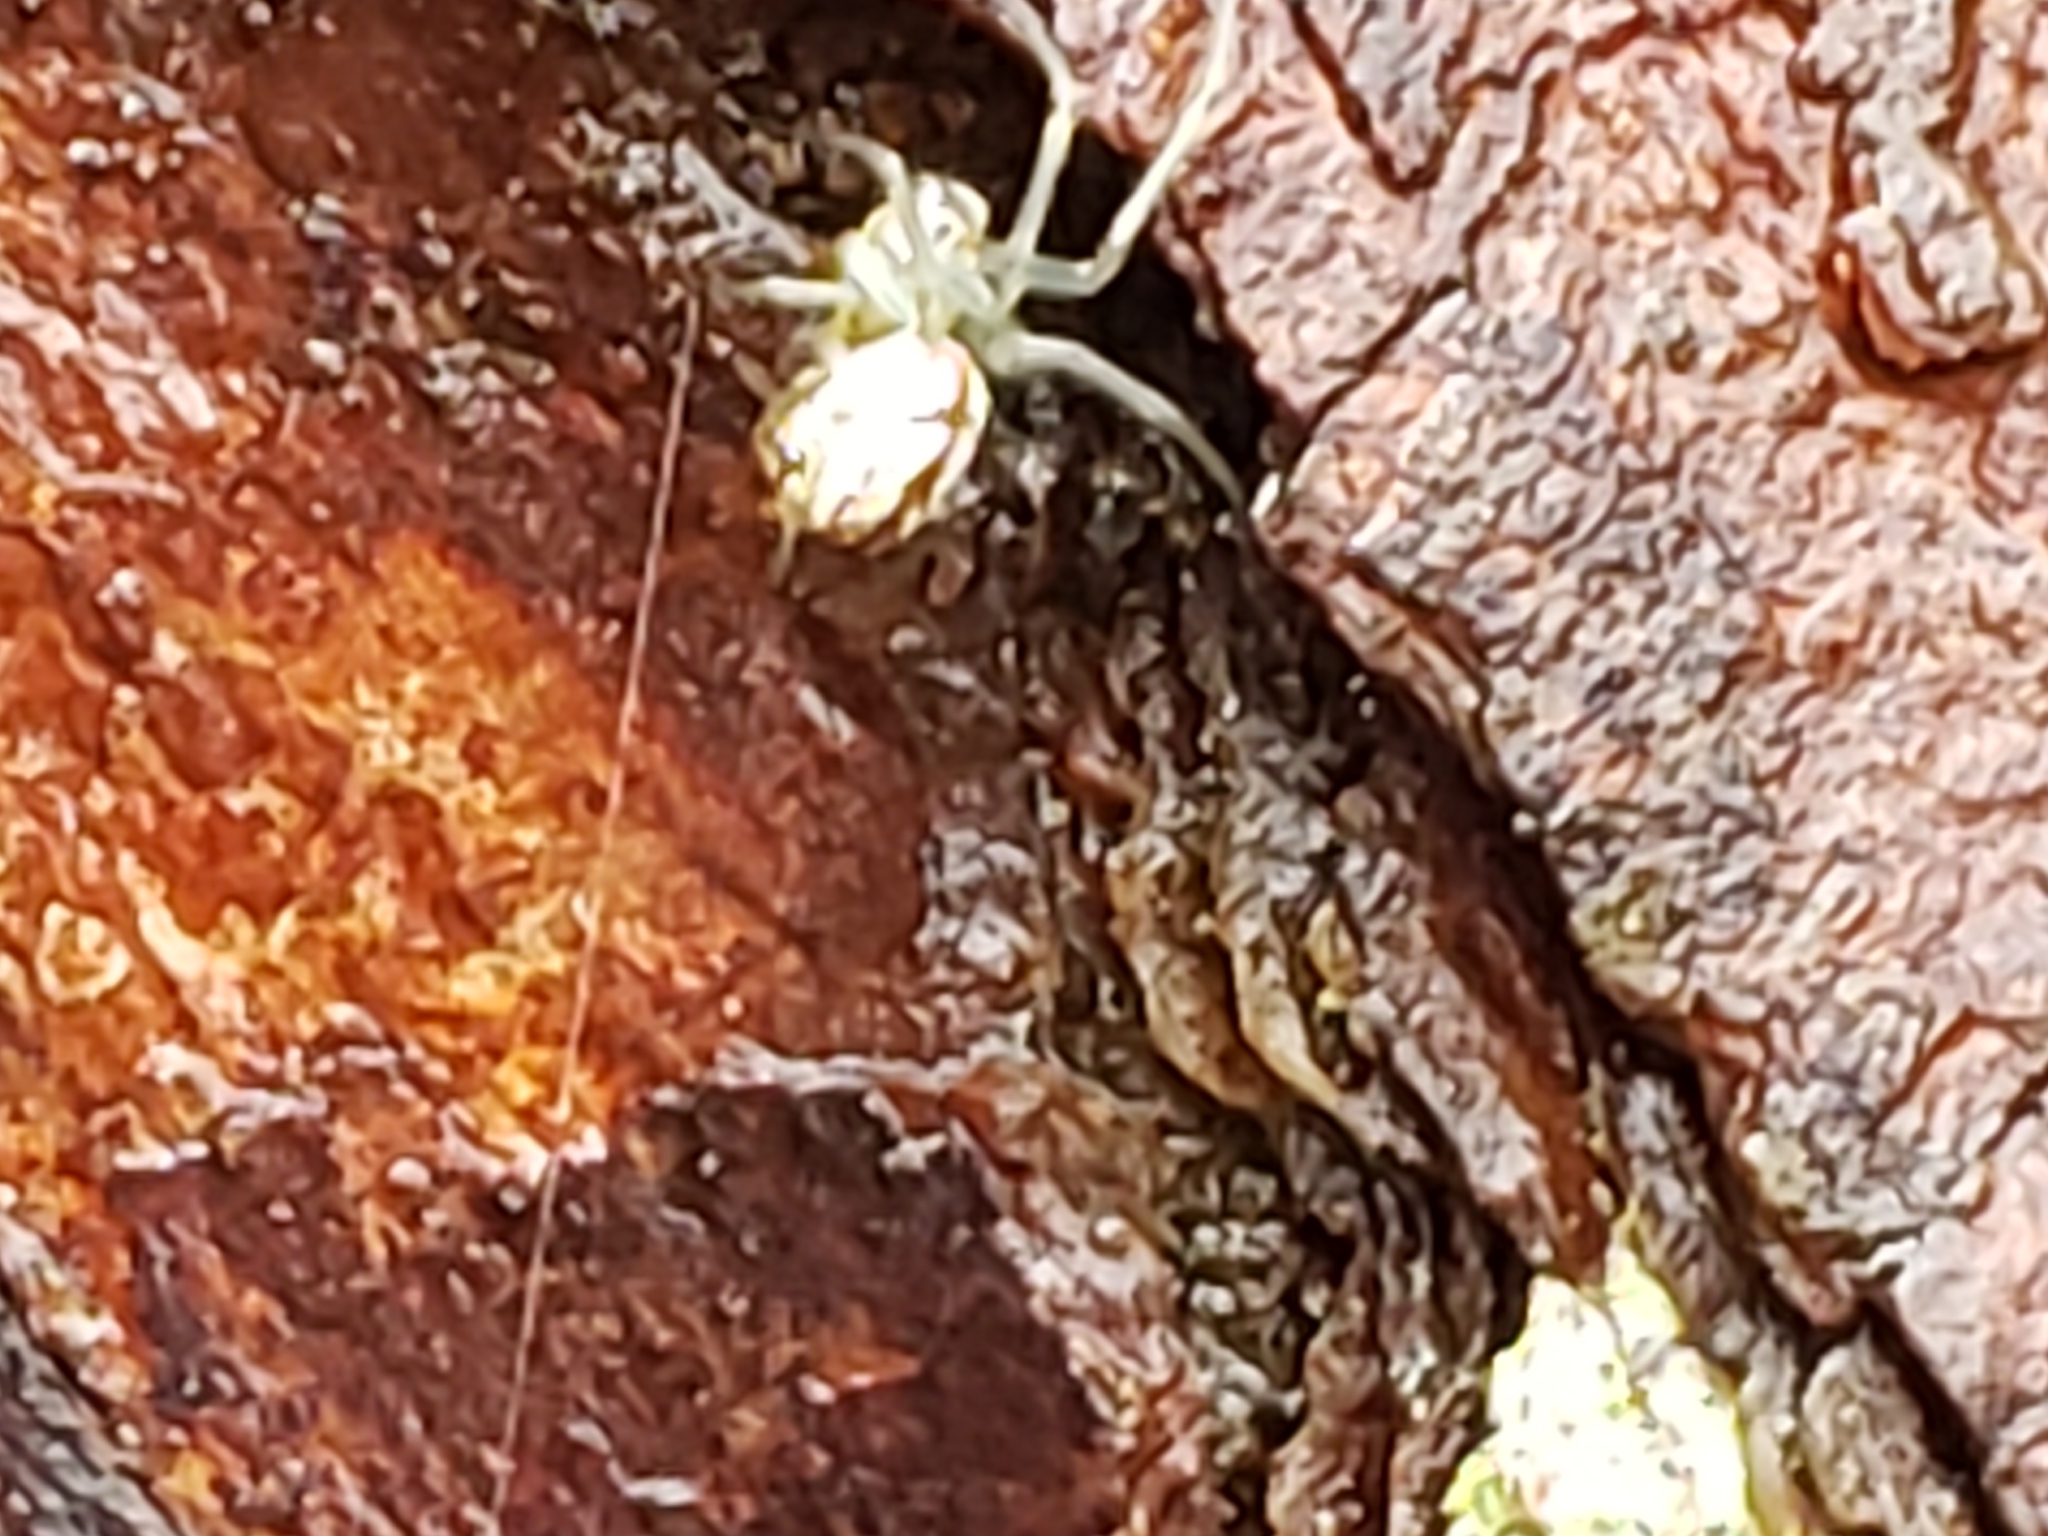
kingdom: Animalia
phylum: Arthropoda
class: Arachnida
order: Araneae
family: Tetragnathidae
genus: Leucauge
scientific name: Leucauge venusta
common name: Longjawed orb weavers
